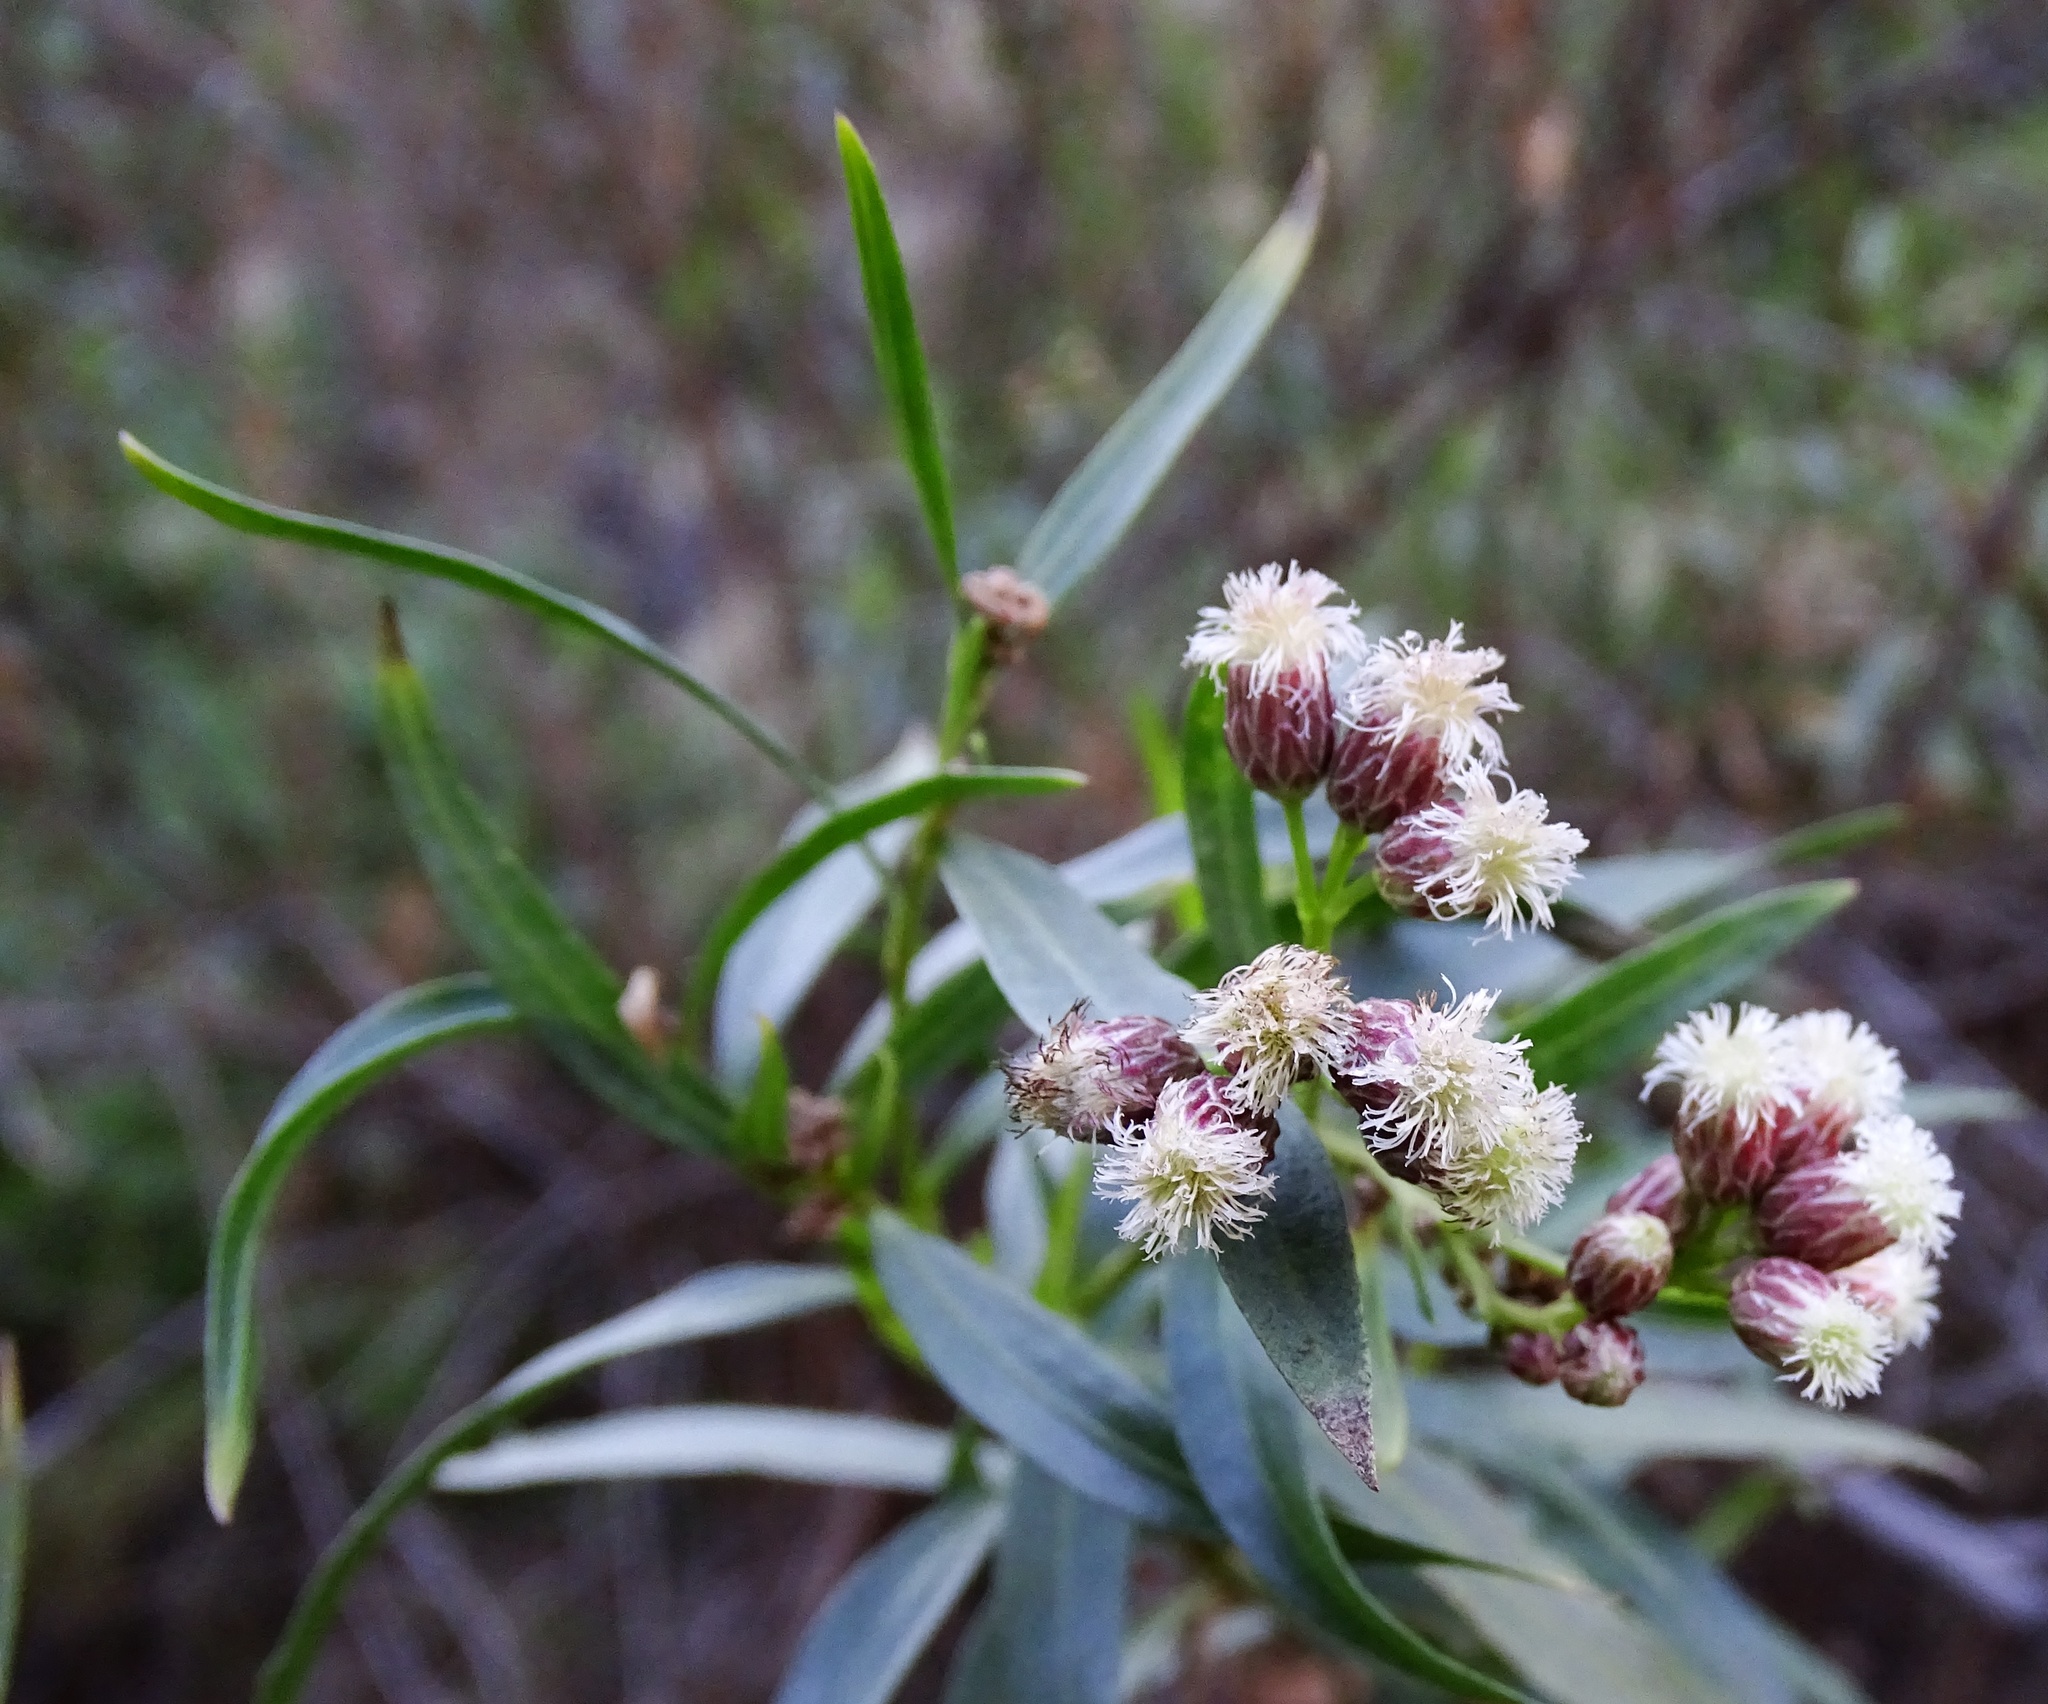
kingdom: Plantae
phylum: Tracheophyta
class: Magnoliopsida
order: Asterales
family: Asteraceae
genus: Baccharis
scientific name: Baccharis salicifolia
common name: Sticky baccharis
